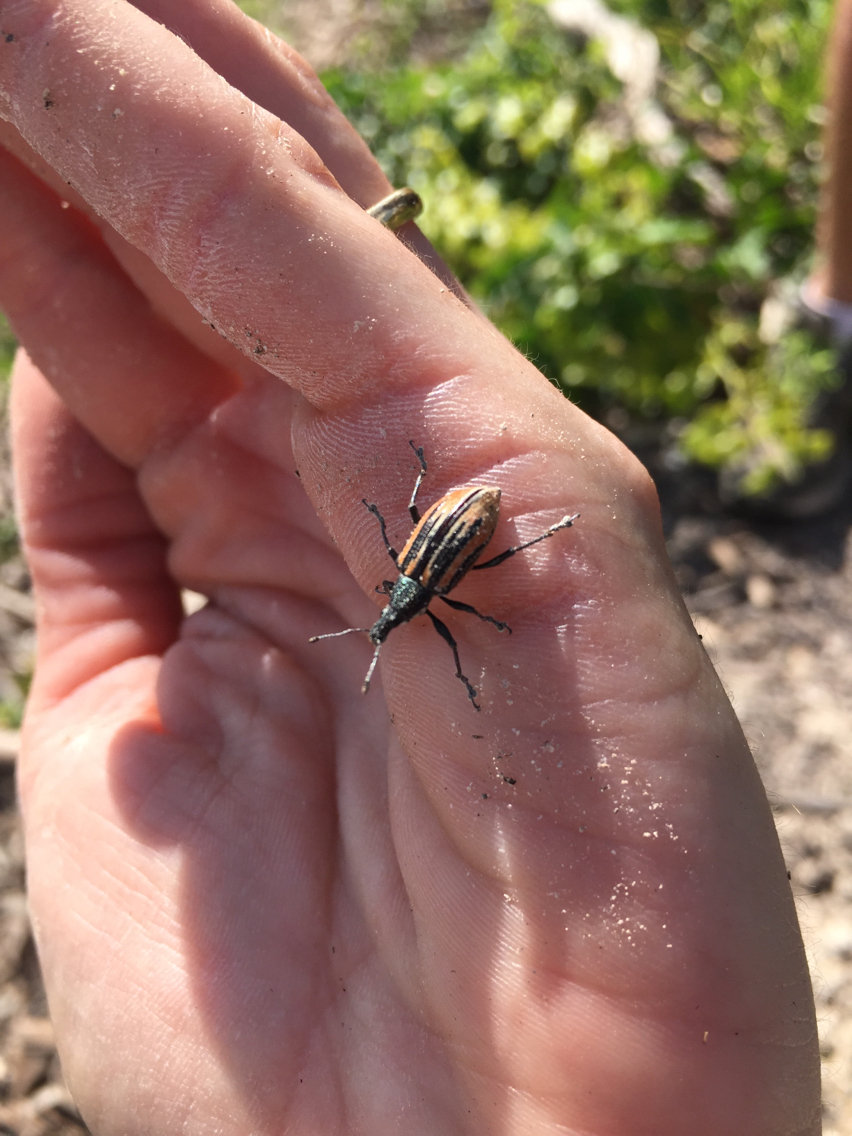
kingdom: Animalia
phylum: Arthropoda
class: Insecta
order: Coleoptera
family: Curculionidae
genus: Diaprepes
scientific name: Diaprepes abbreviatus
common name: Root weevil
